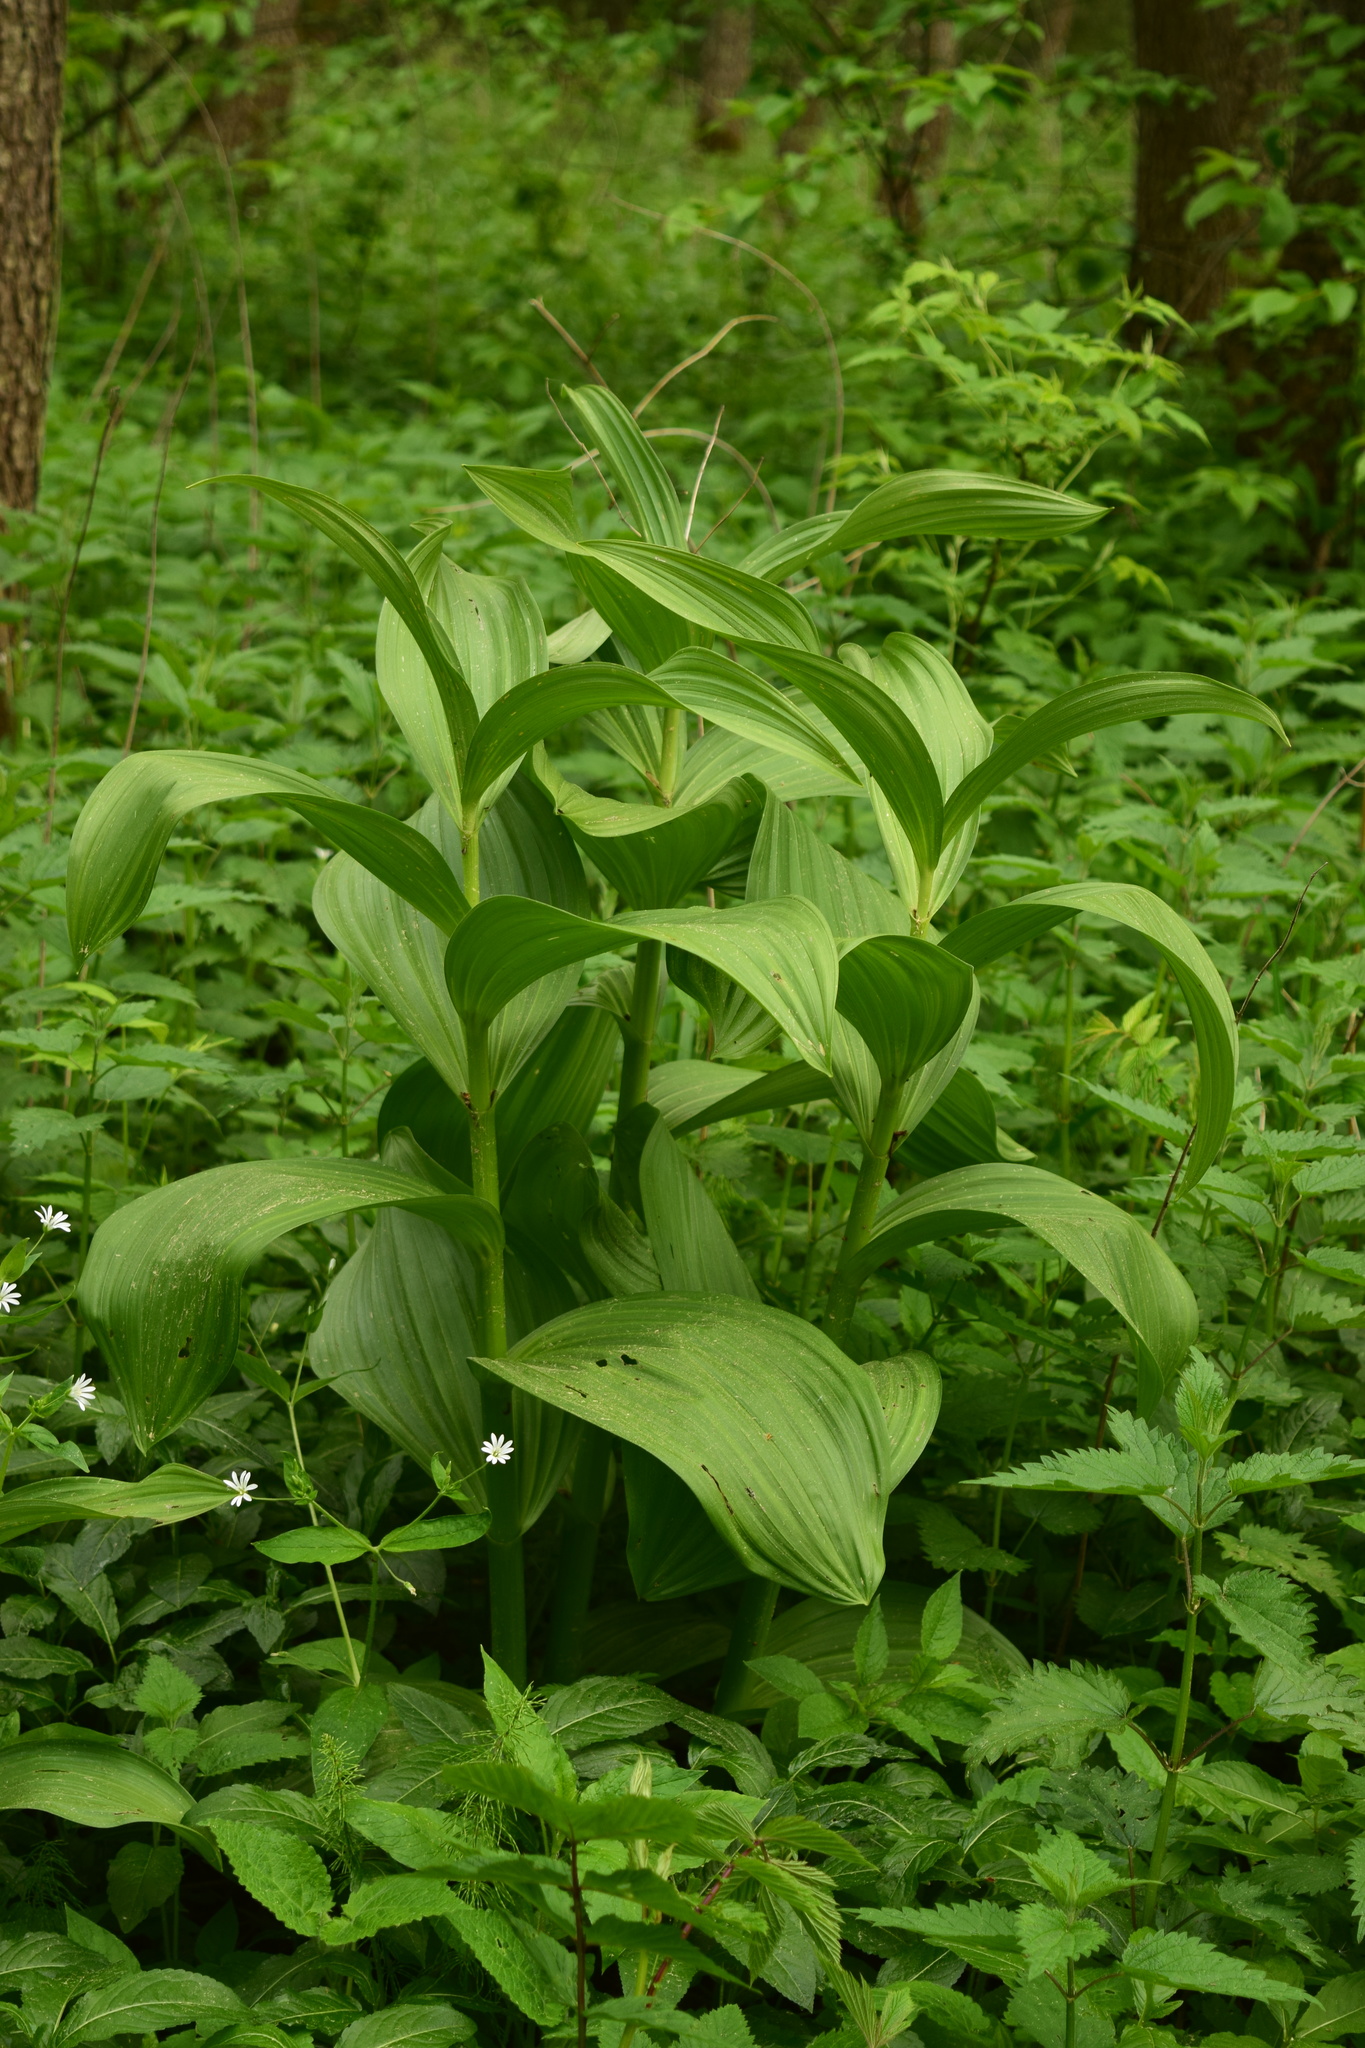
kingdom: Plantae
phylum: Tracheophyta
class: Liliopsida
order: Liliales
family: Melanthiaceae
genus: Veratrum
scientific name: Veratrum lobelianum
